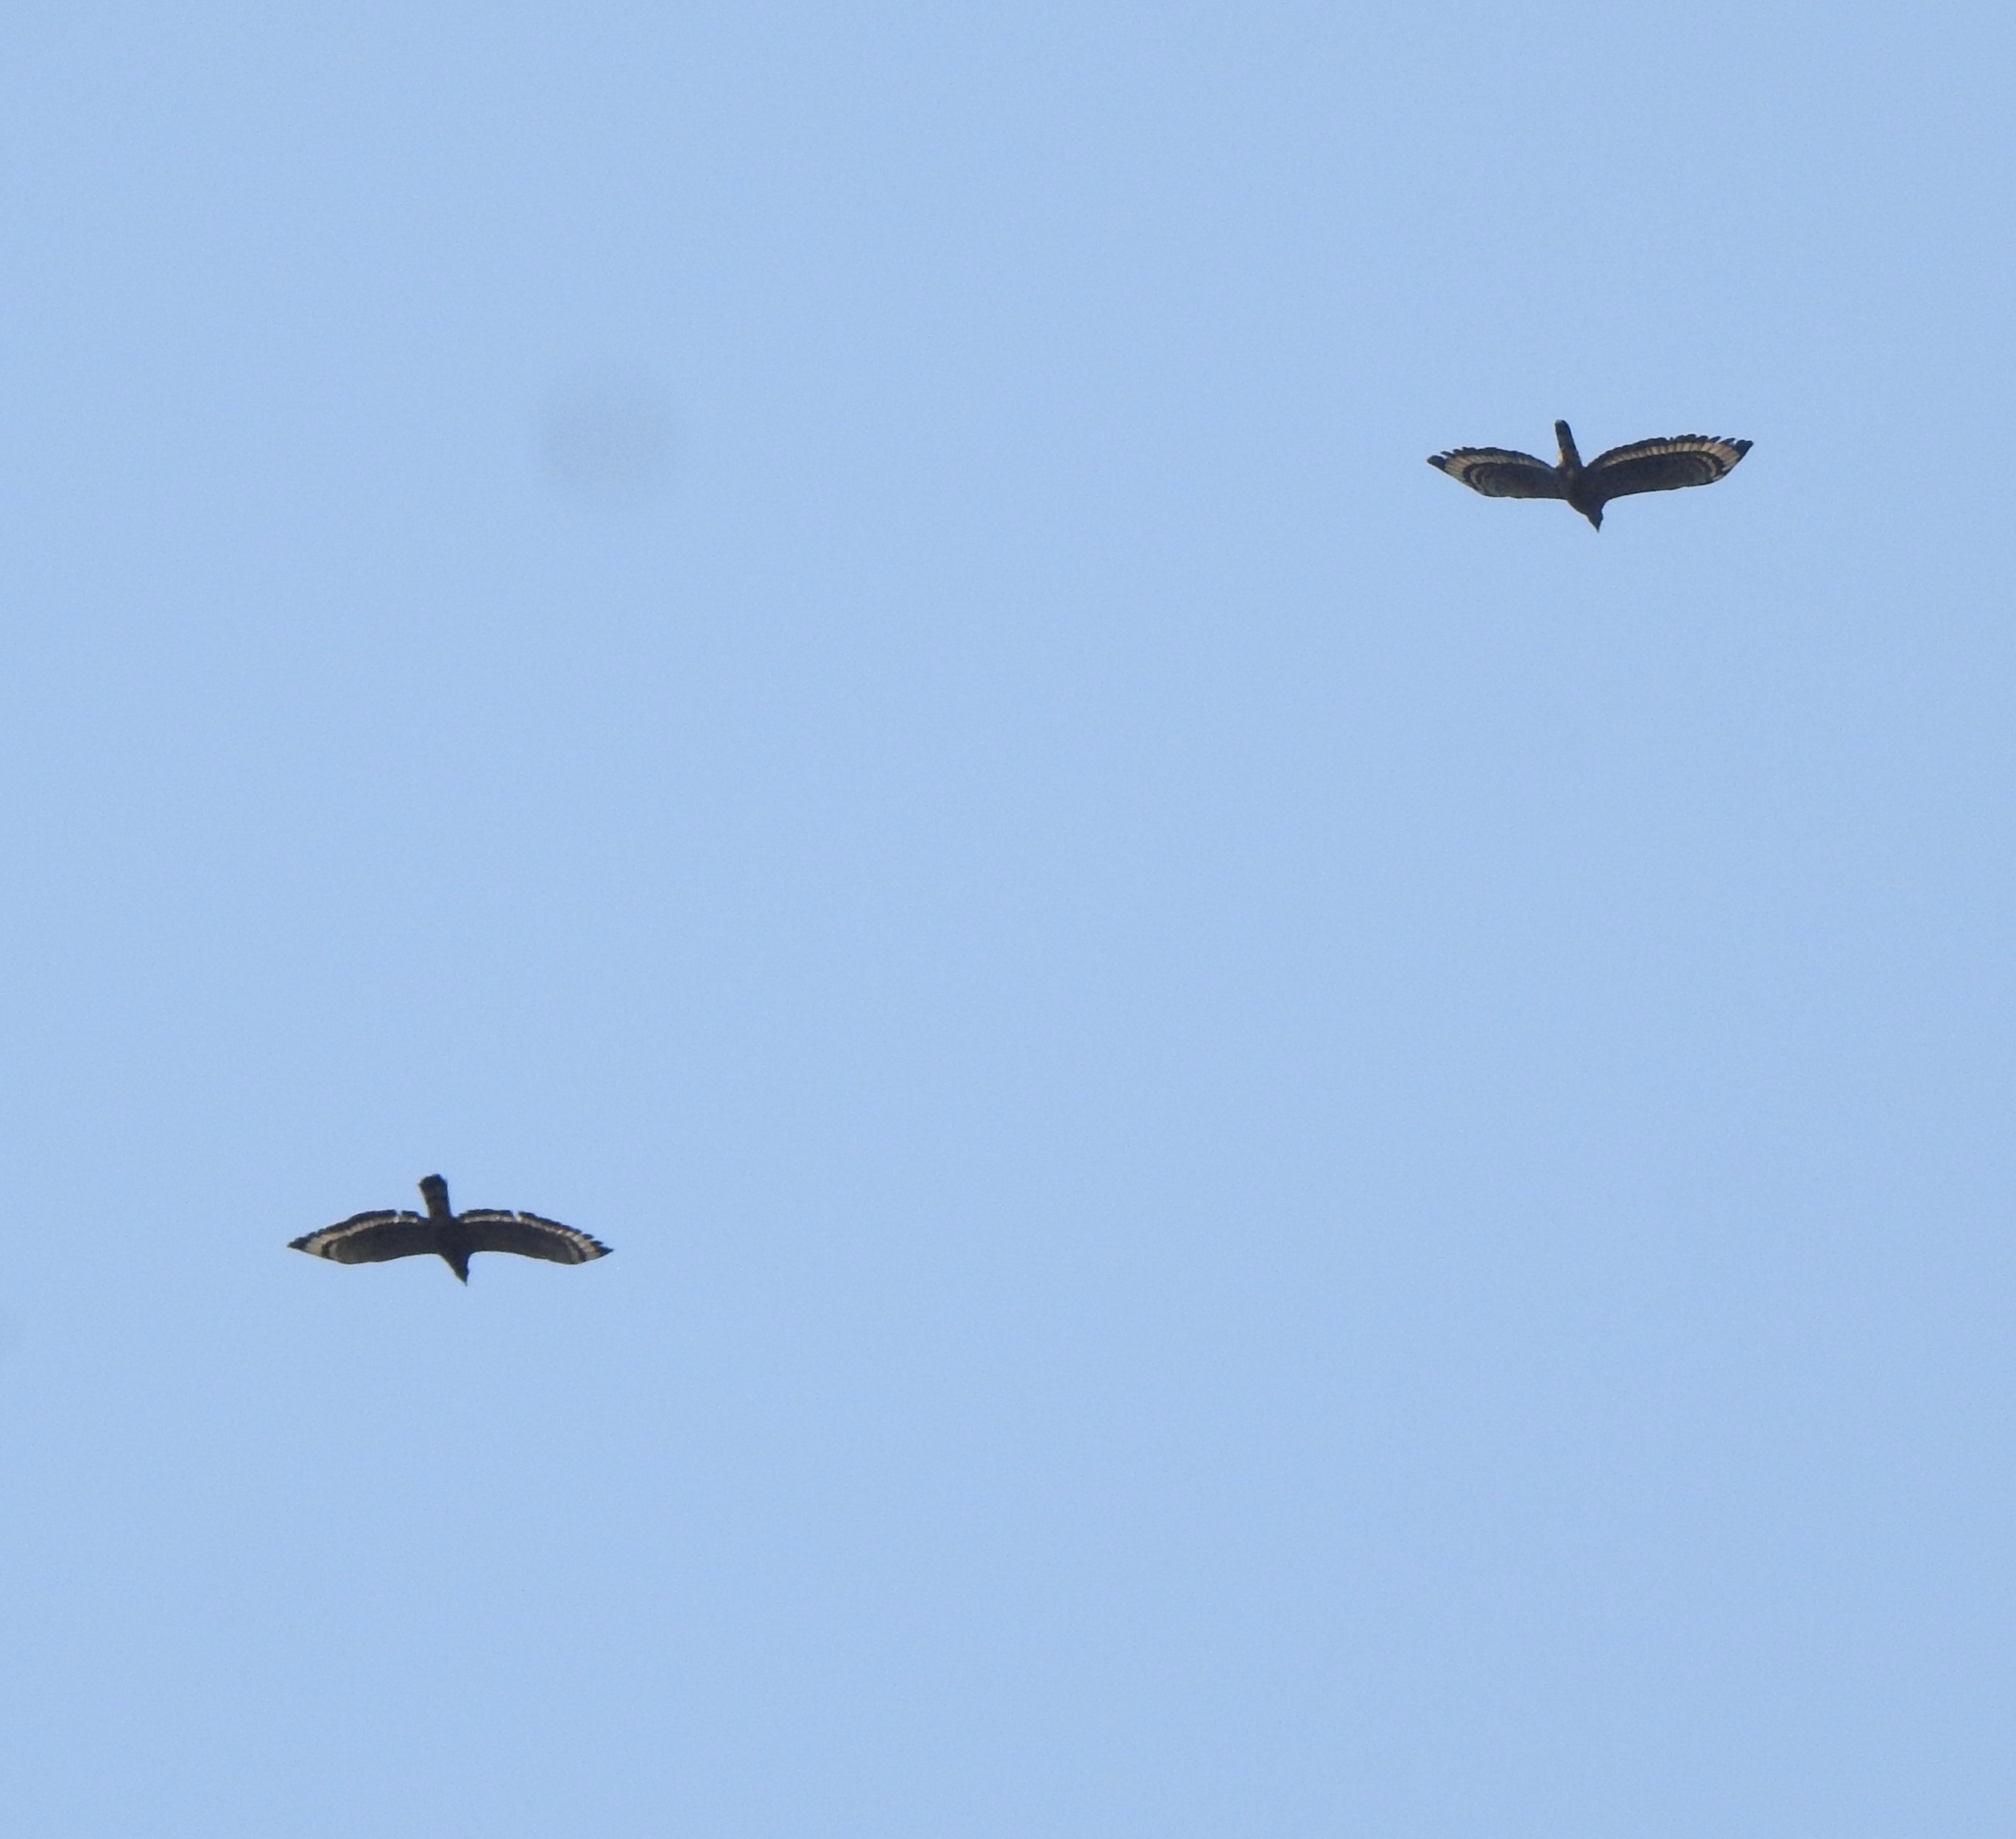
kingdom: Animalia
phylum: Chordata
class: Aves
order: Accipitriformes
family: Accipitridae
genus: Spilornis
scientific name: Spilornis cheela
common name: Crested serpent eagle
